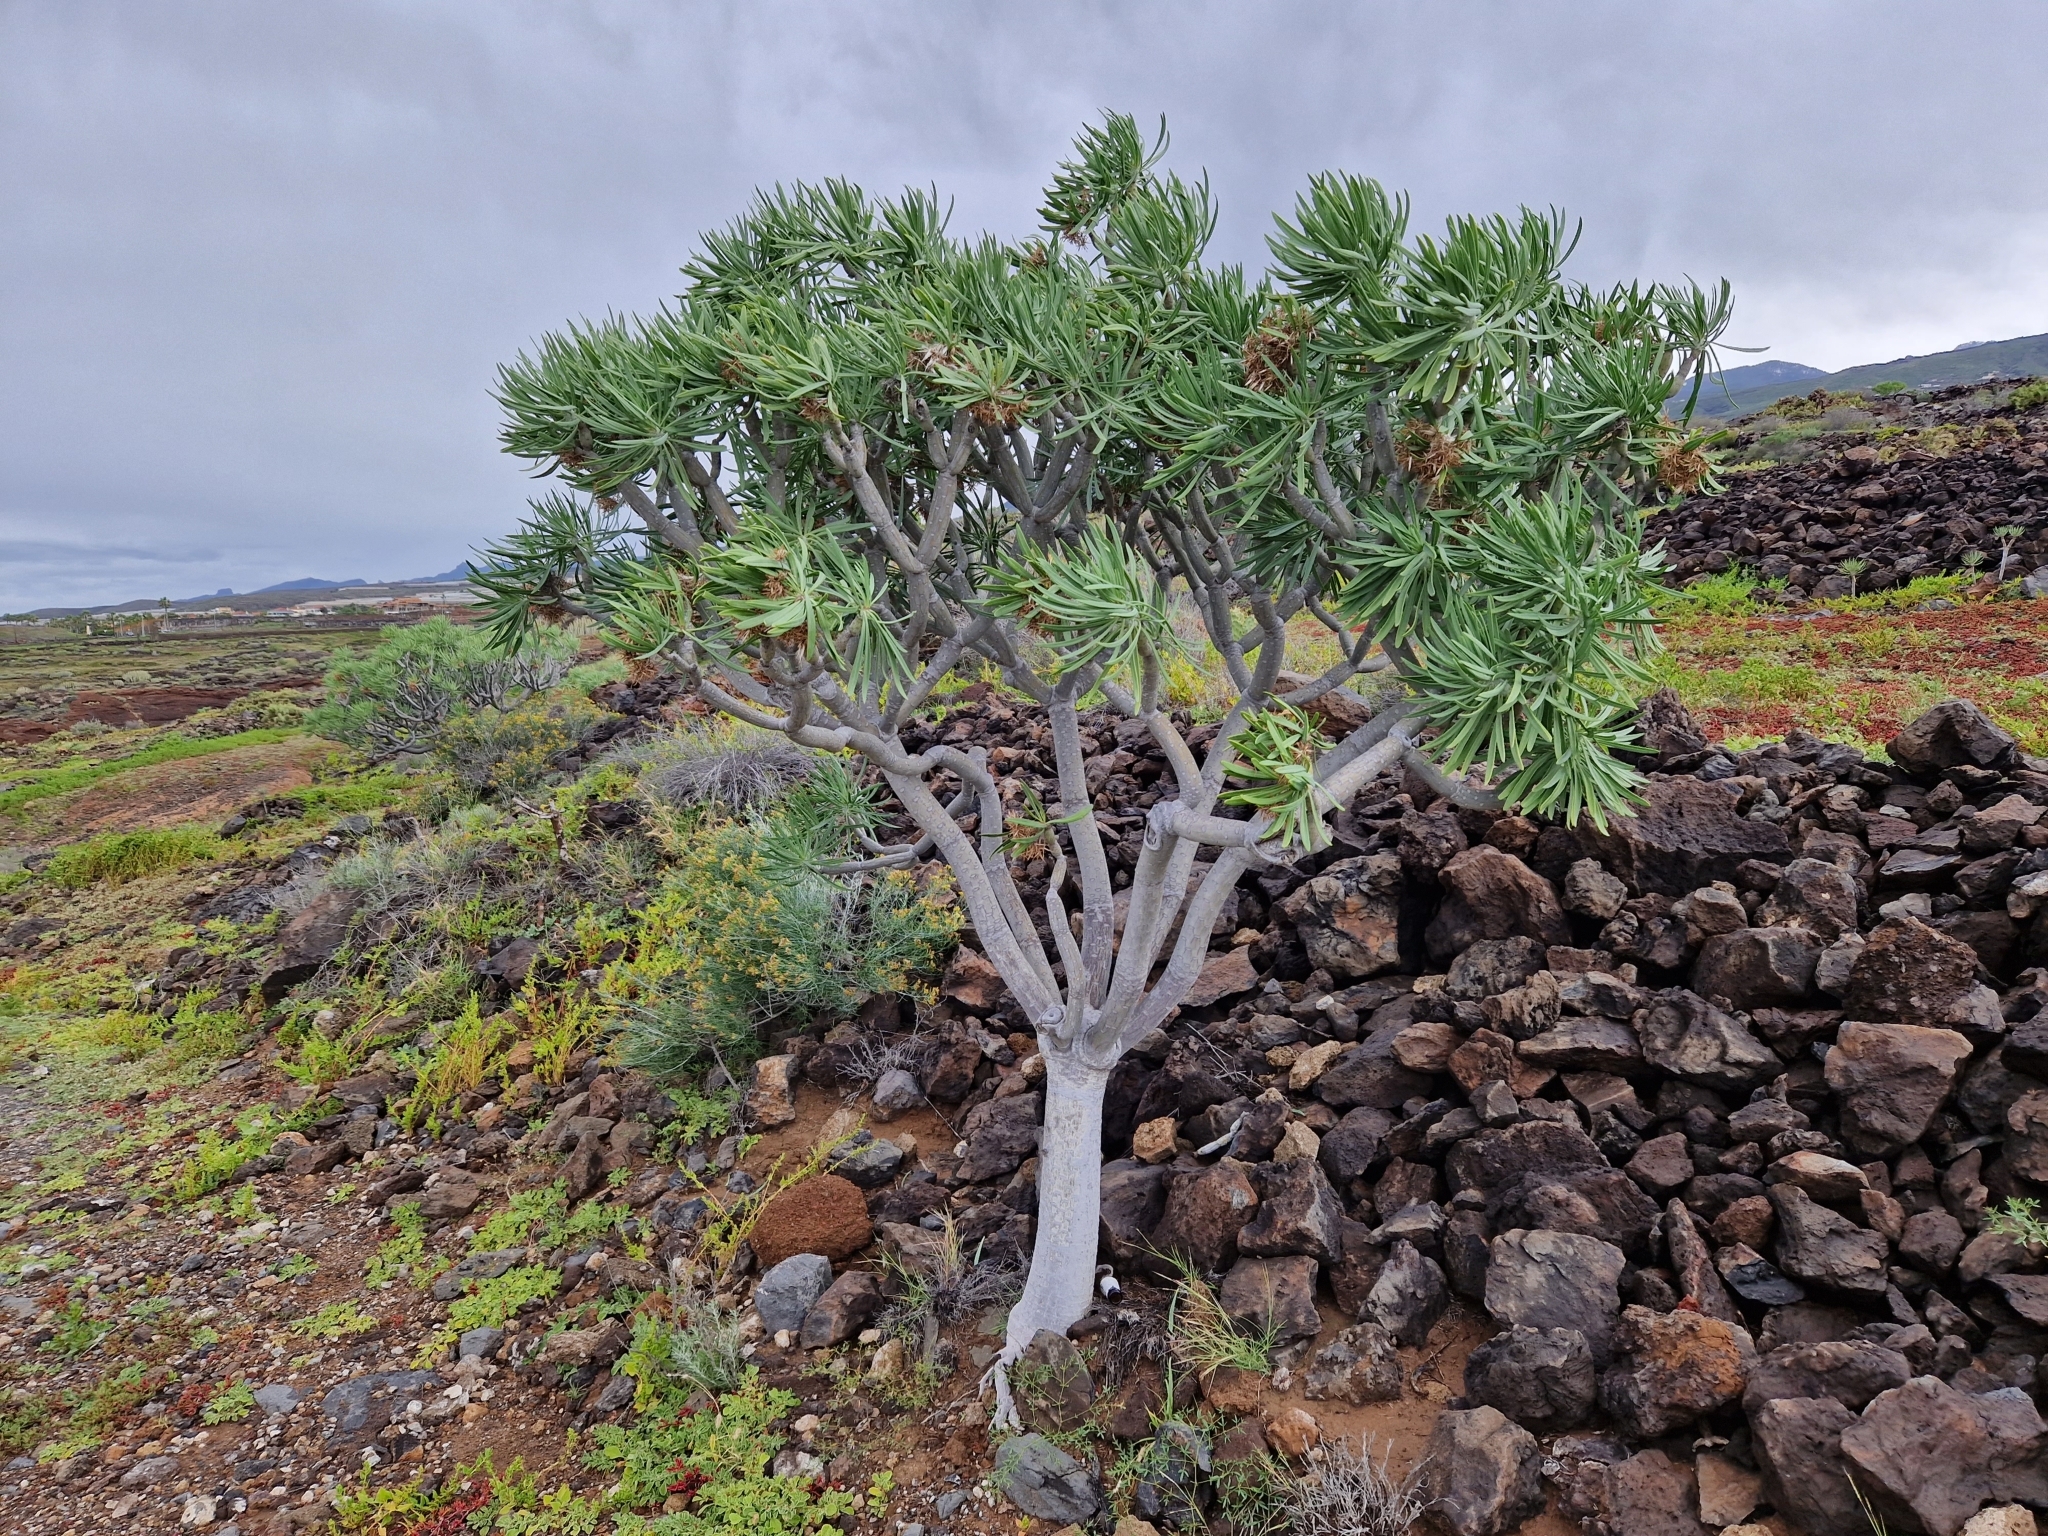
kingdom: Plantae
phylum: Tracheophyta
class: Magnoliopsida
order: Asterales
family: Asteraceae
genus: Kleinia
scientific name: Kleinia neriifolia
